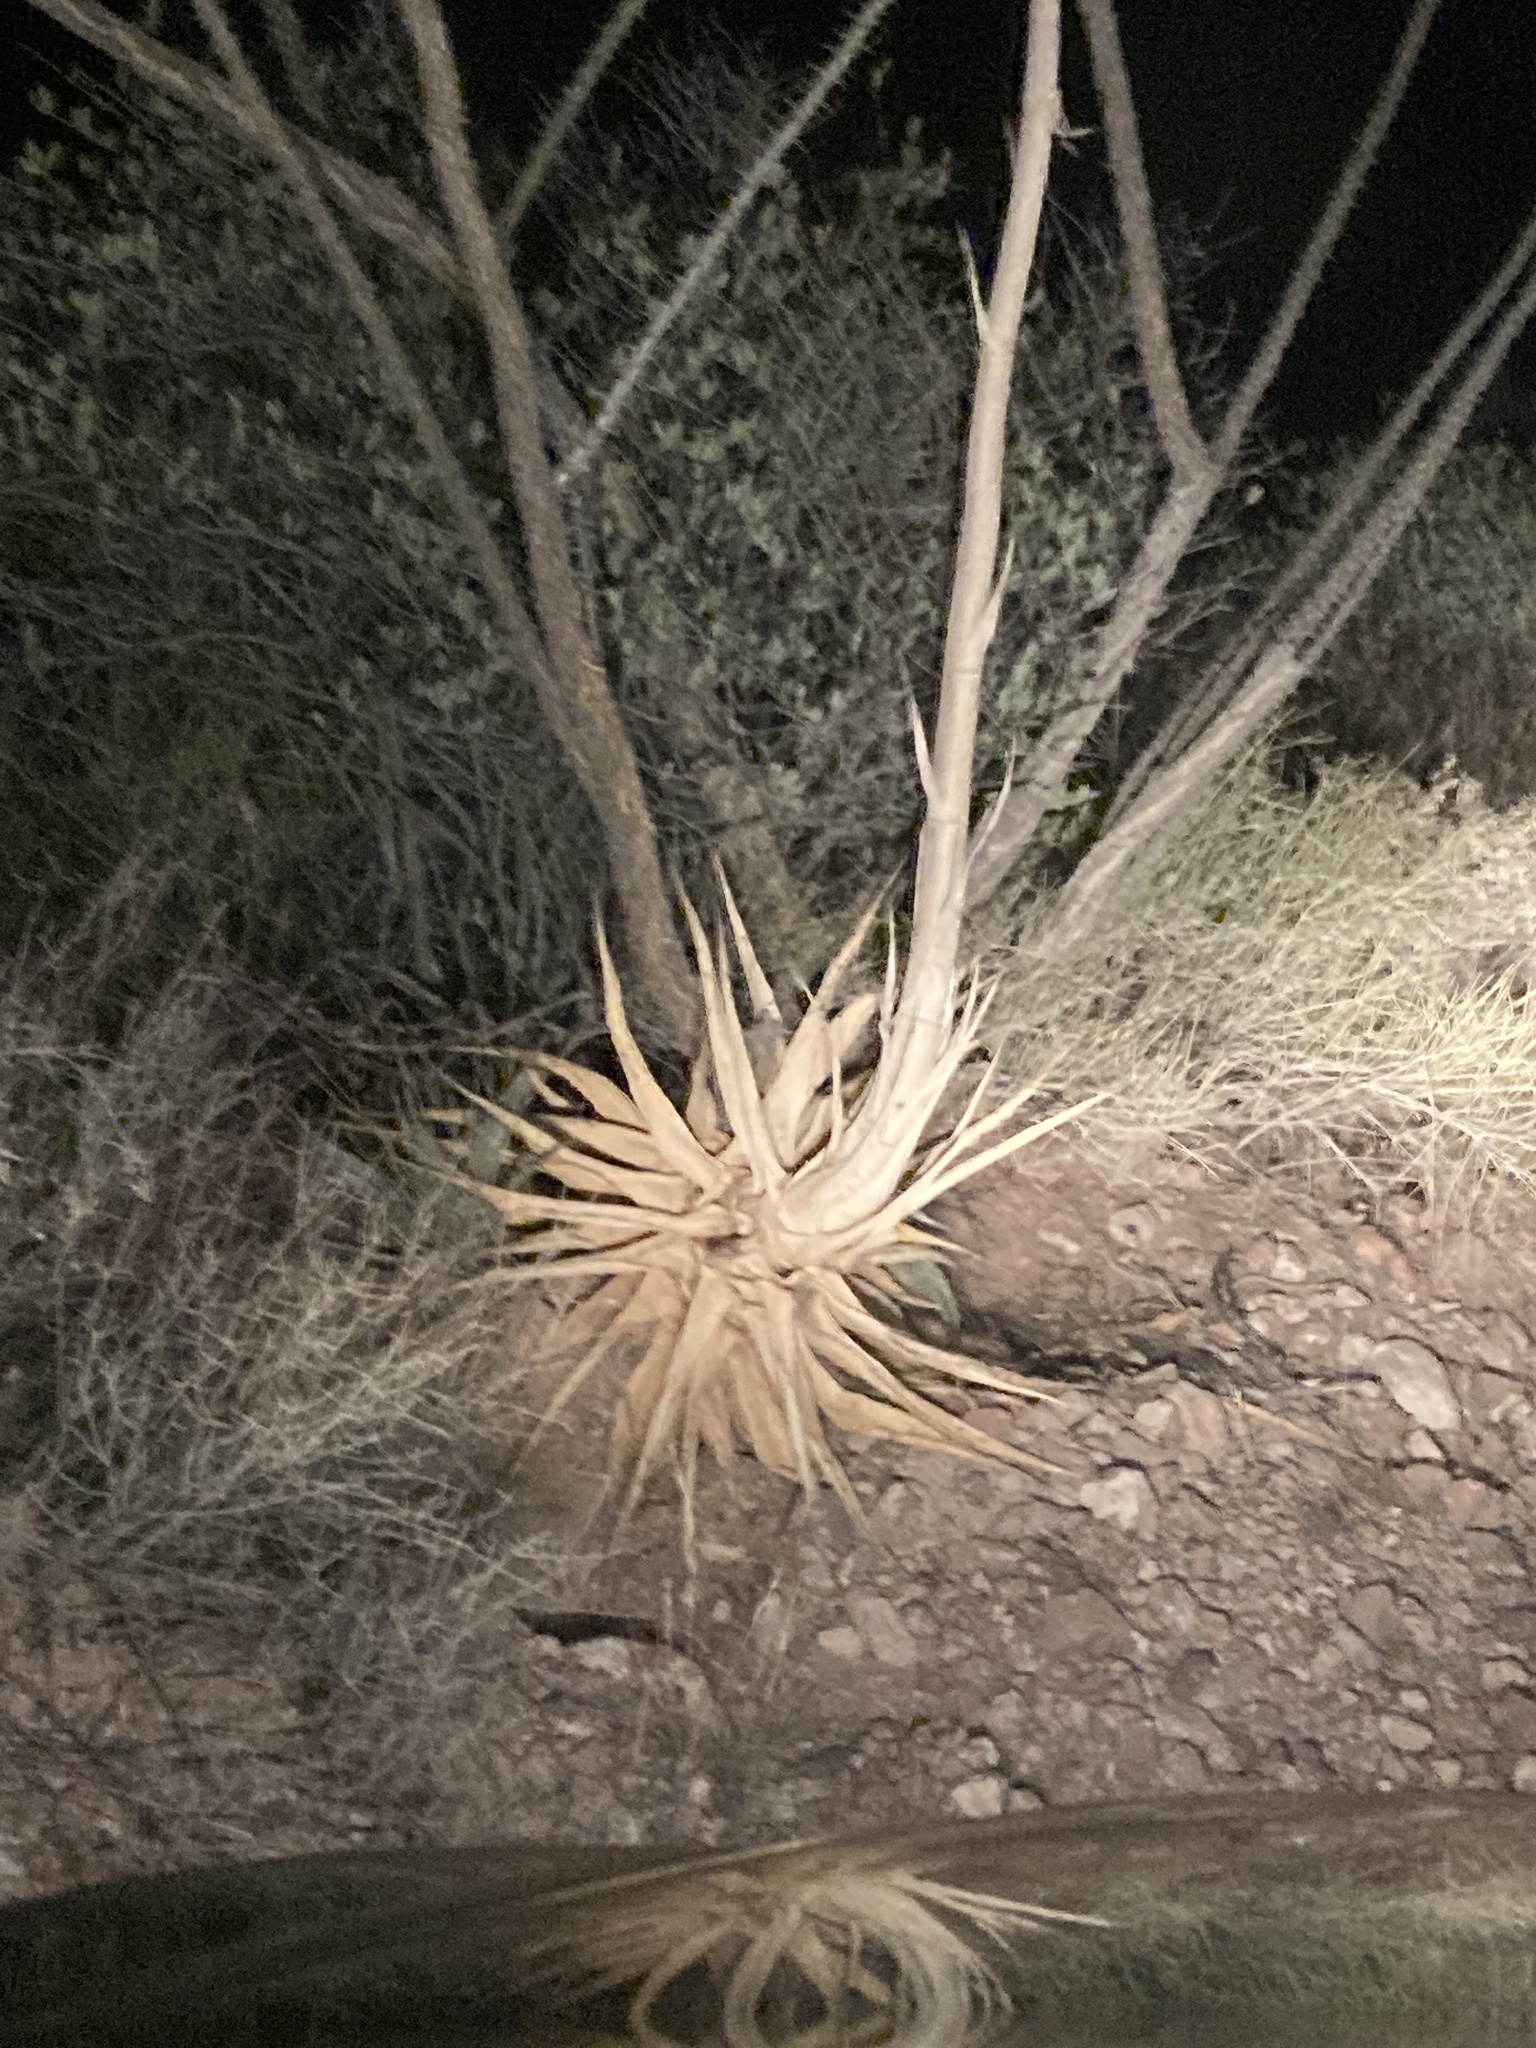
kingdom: Plantae
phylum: Tracheophyta
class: Liliopsida
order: Asparagales
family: Asparagaceae
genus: Agave
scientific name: Agave simplex
